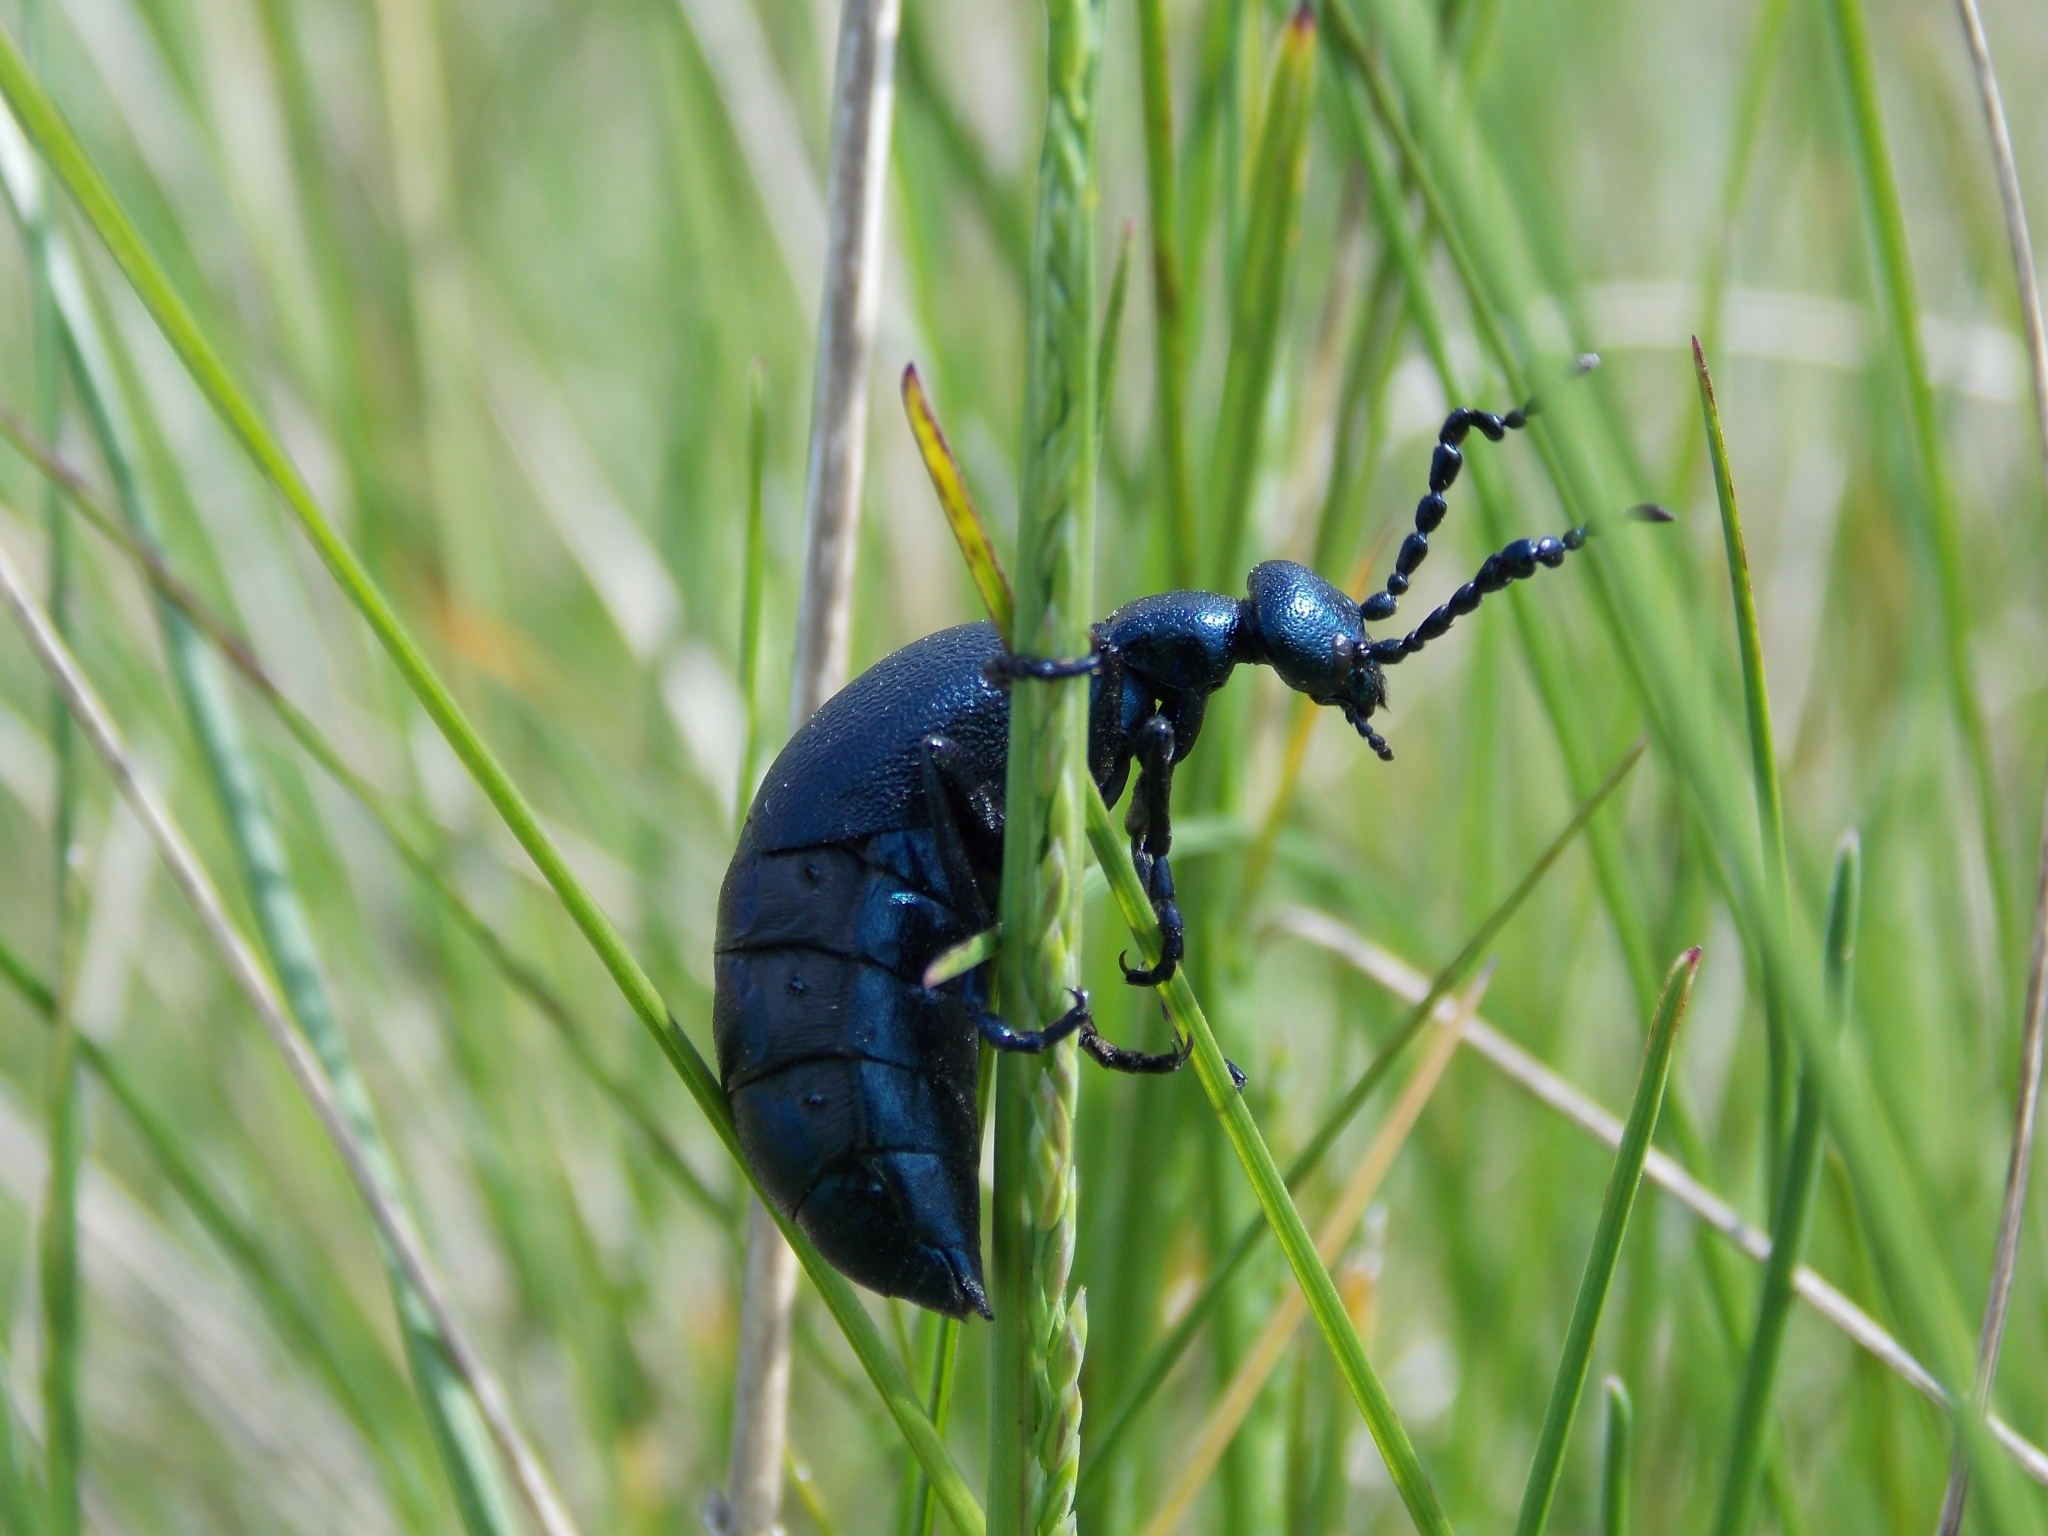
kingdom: Animalia
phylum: Arthropoda
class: Insecta
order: Coleoptera
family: Meloidae
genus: Meloe
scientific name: Meloe violaceus
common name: Violet oil-beetle
